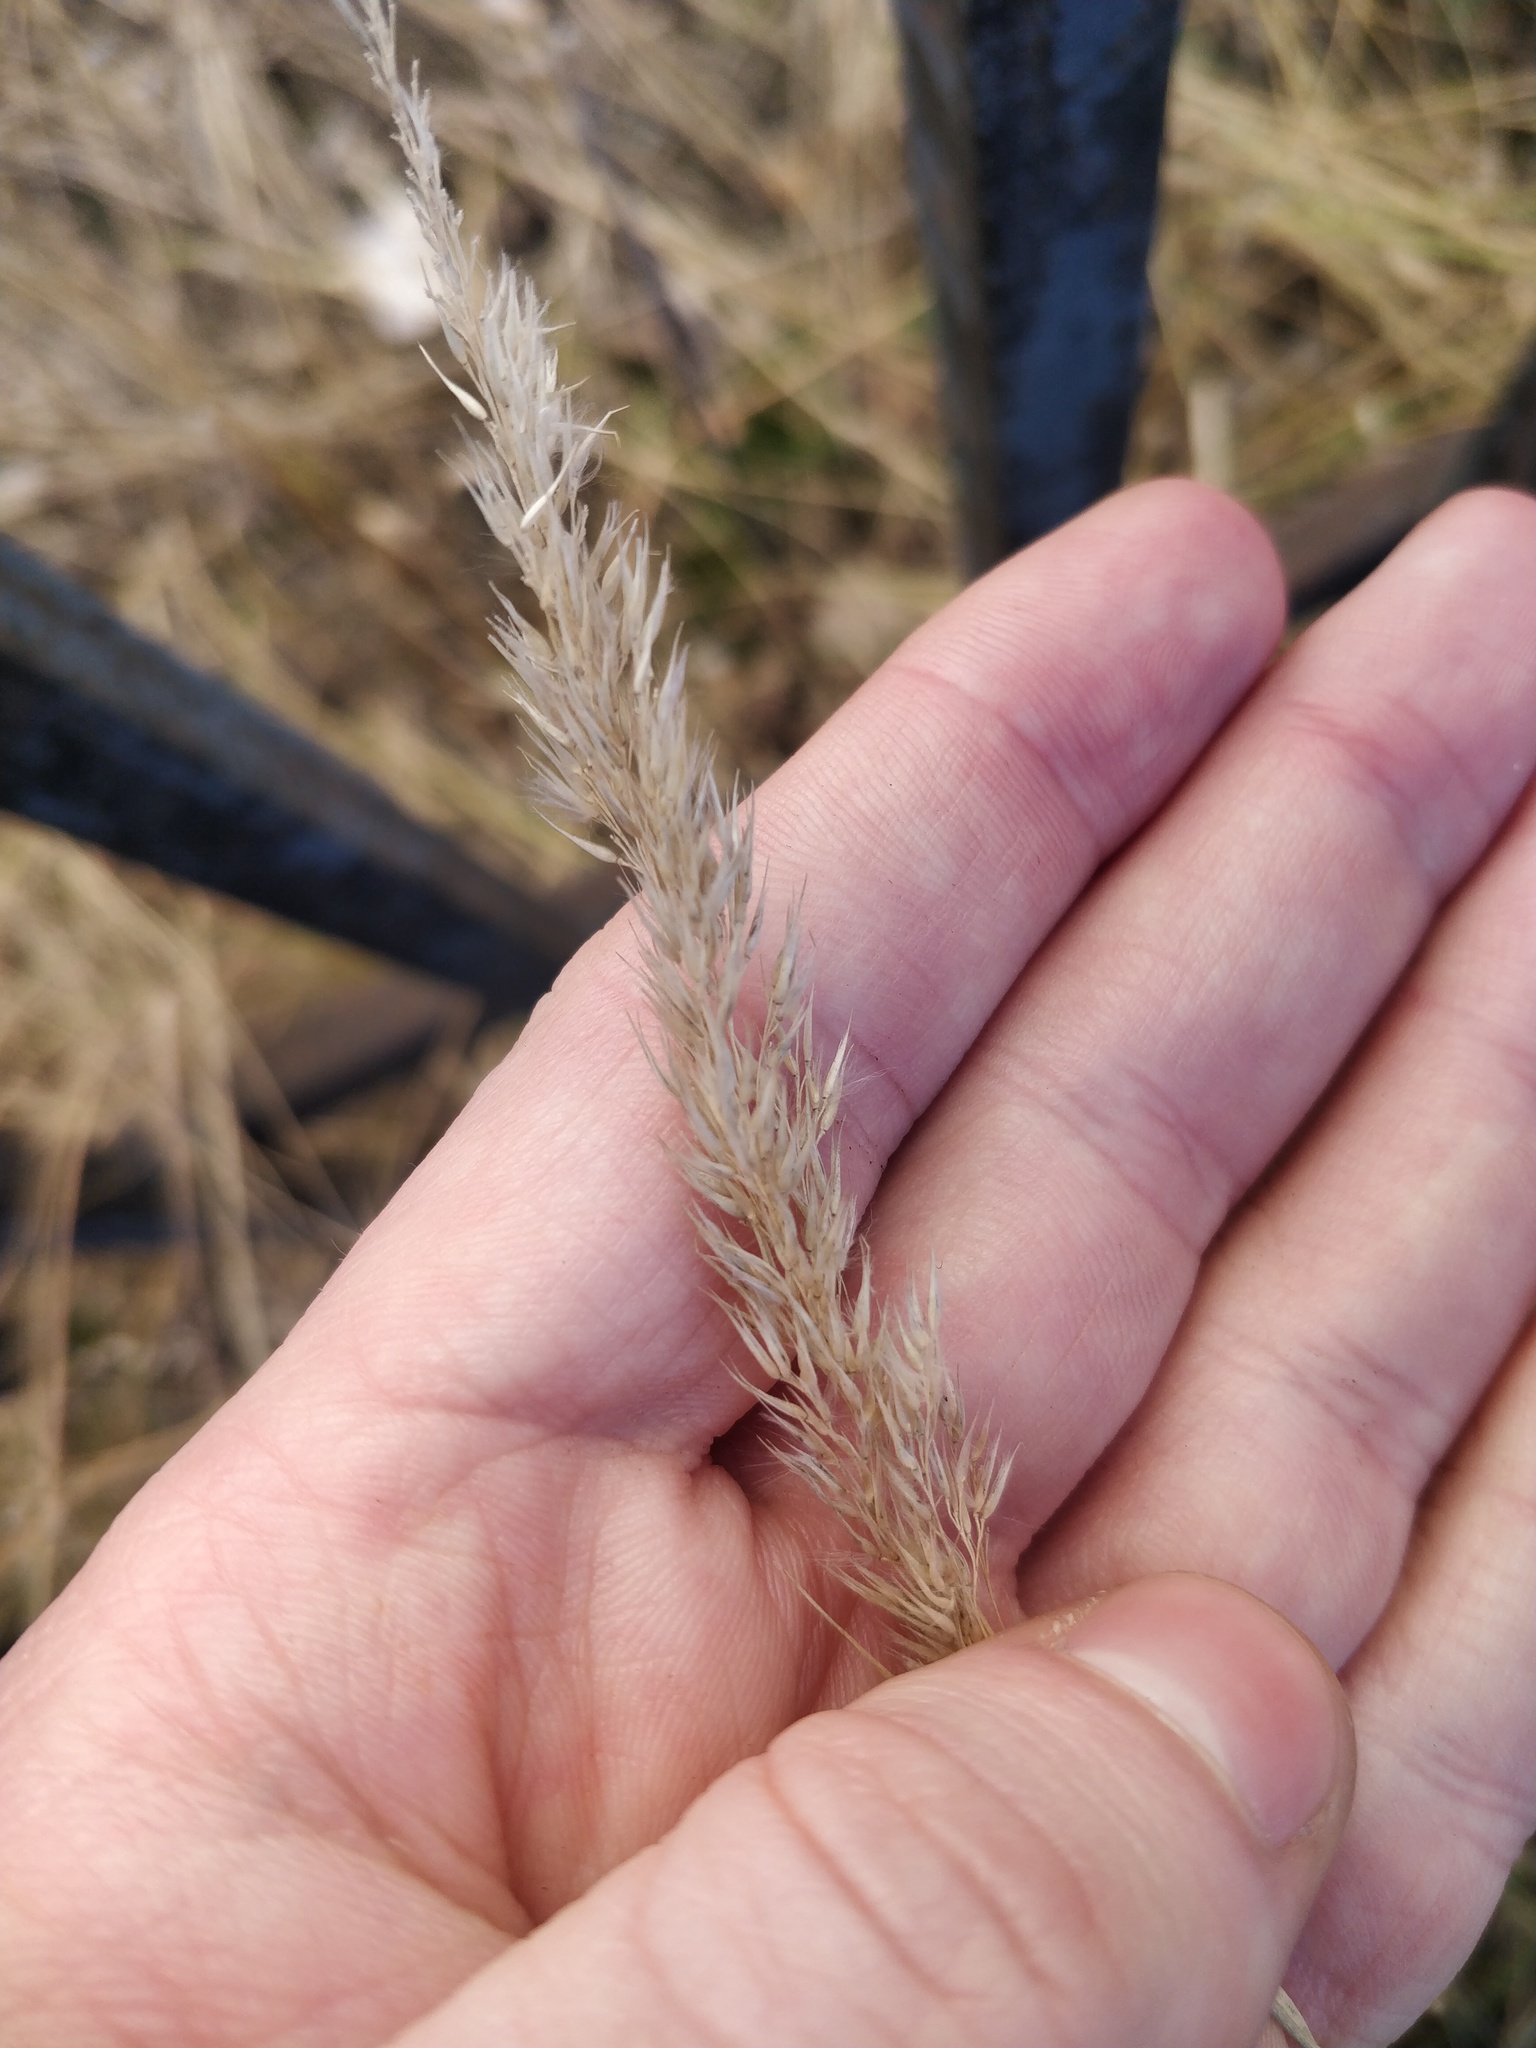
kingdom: Plantae
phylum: Tracheophyta
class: Liliopsida
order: Poales
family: Poaceae
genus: Calamagrostis
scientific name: Calamagrostis epigejos
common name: Wood small-reed
